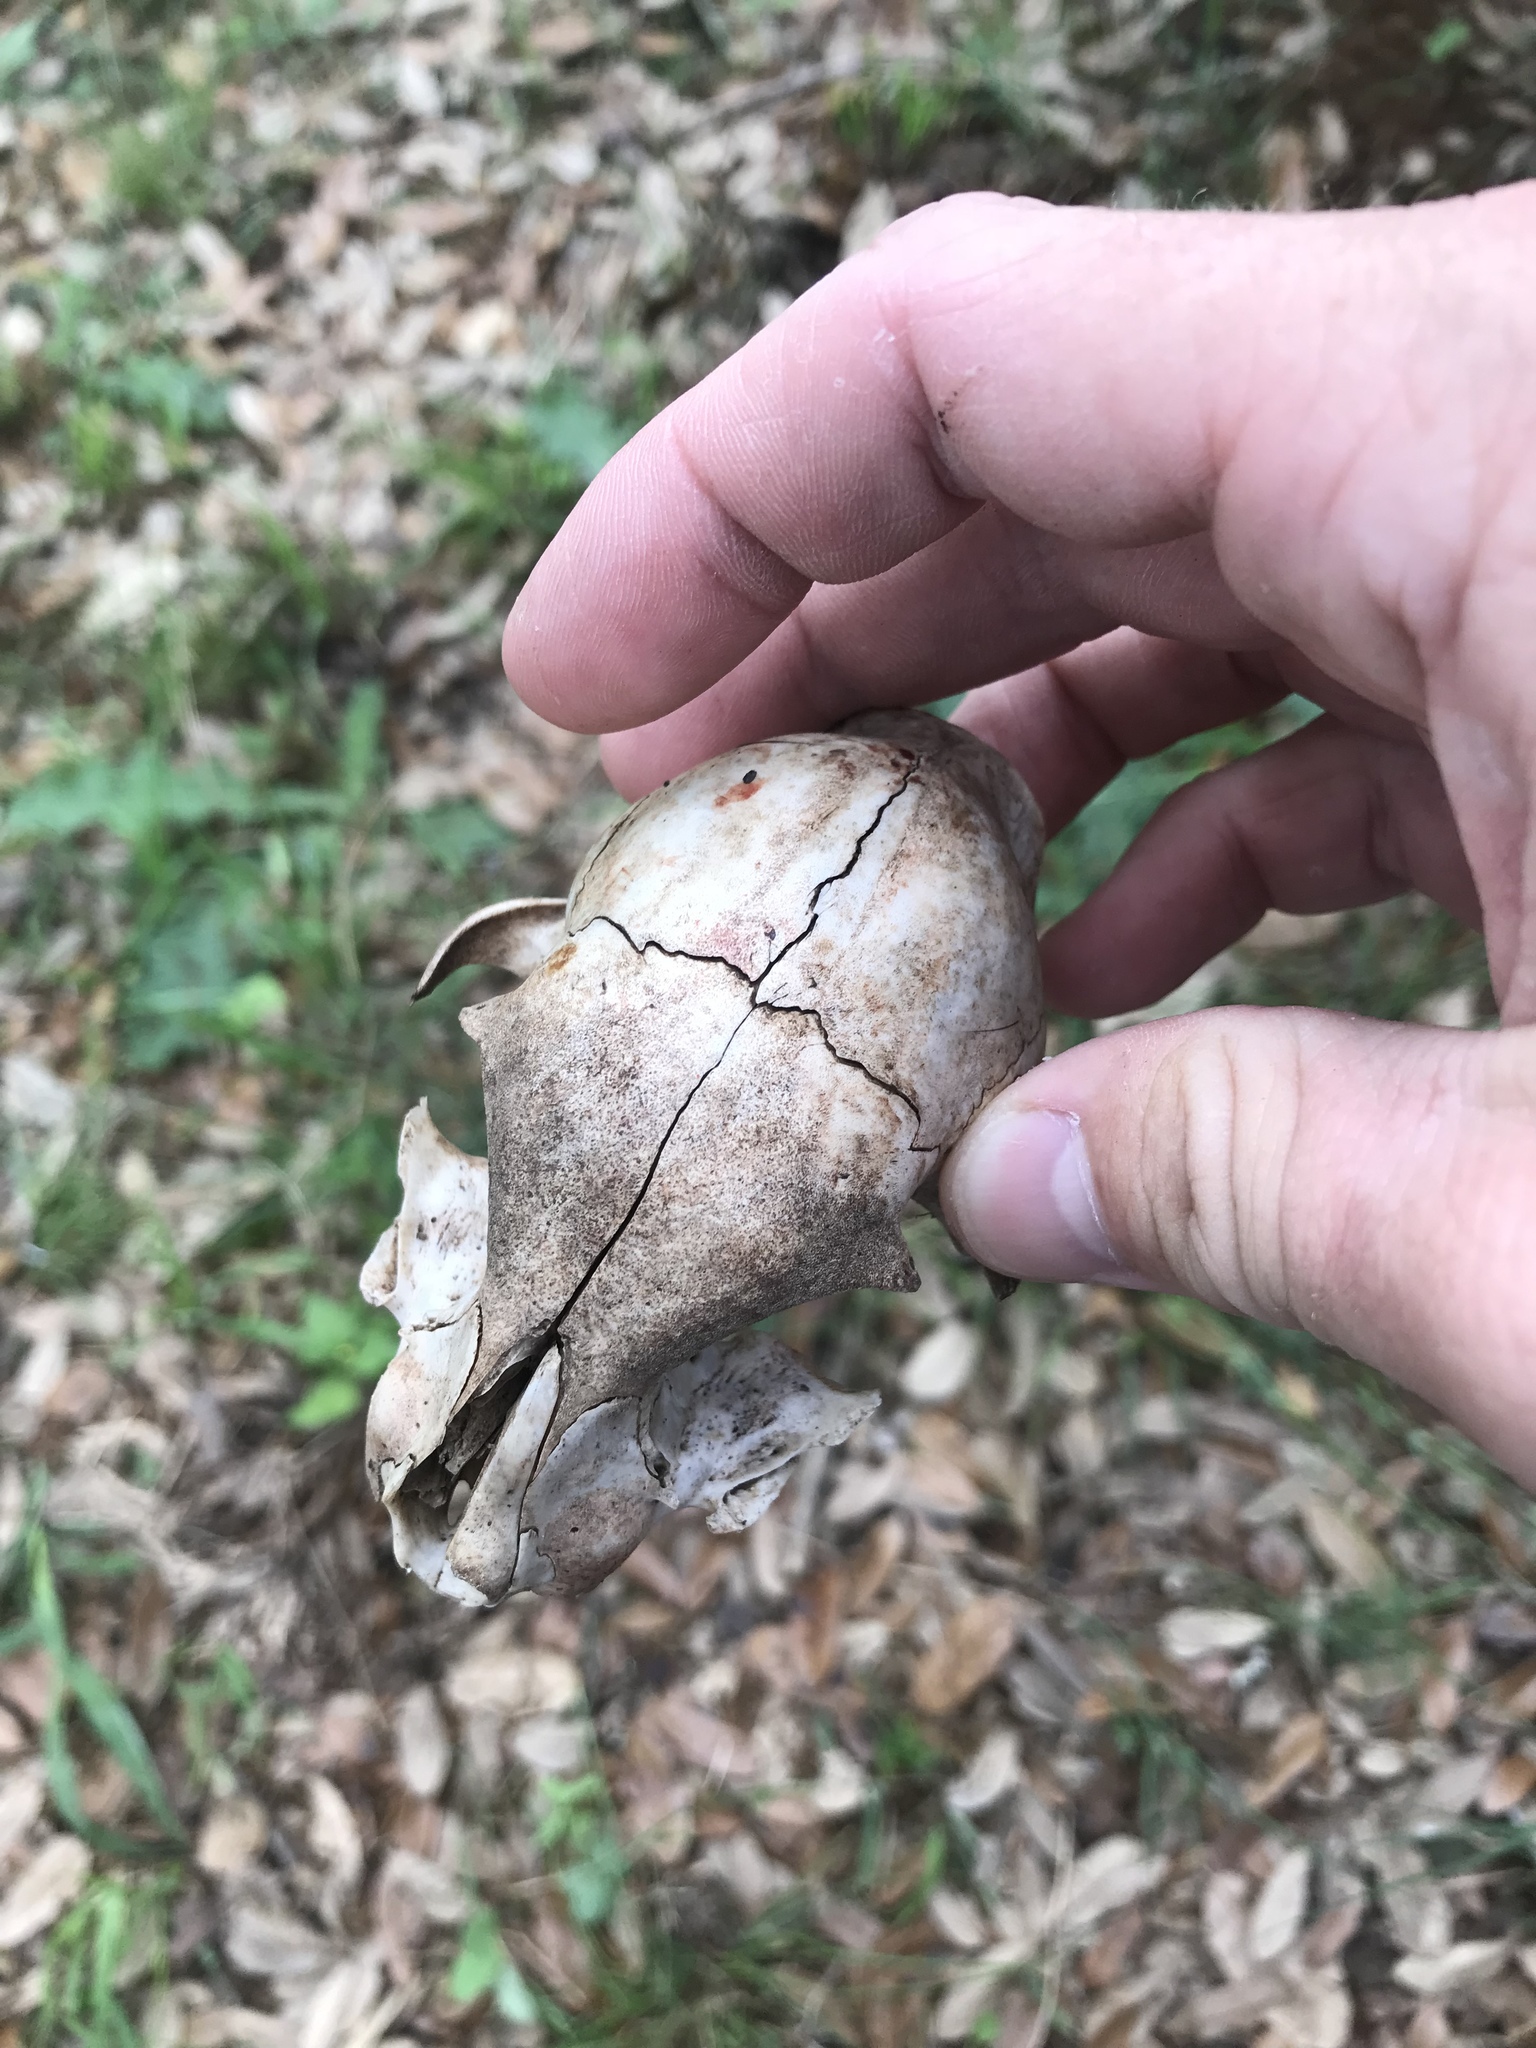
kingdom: Animalia
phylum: Chordata
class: Mammalia
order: Carnivora
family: Felidae
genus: Felis
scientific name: Felis catus
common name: Domestic cat
